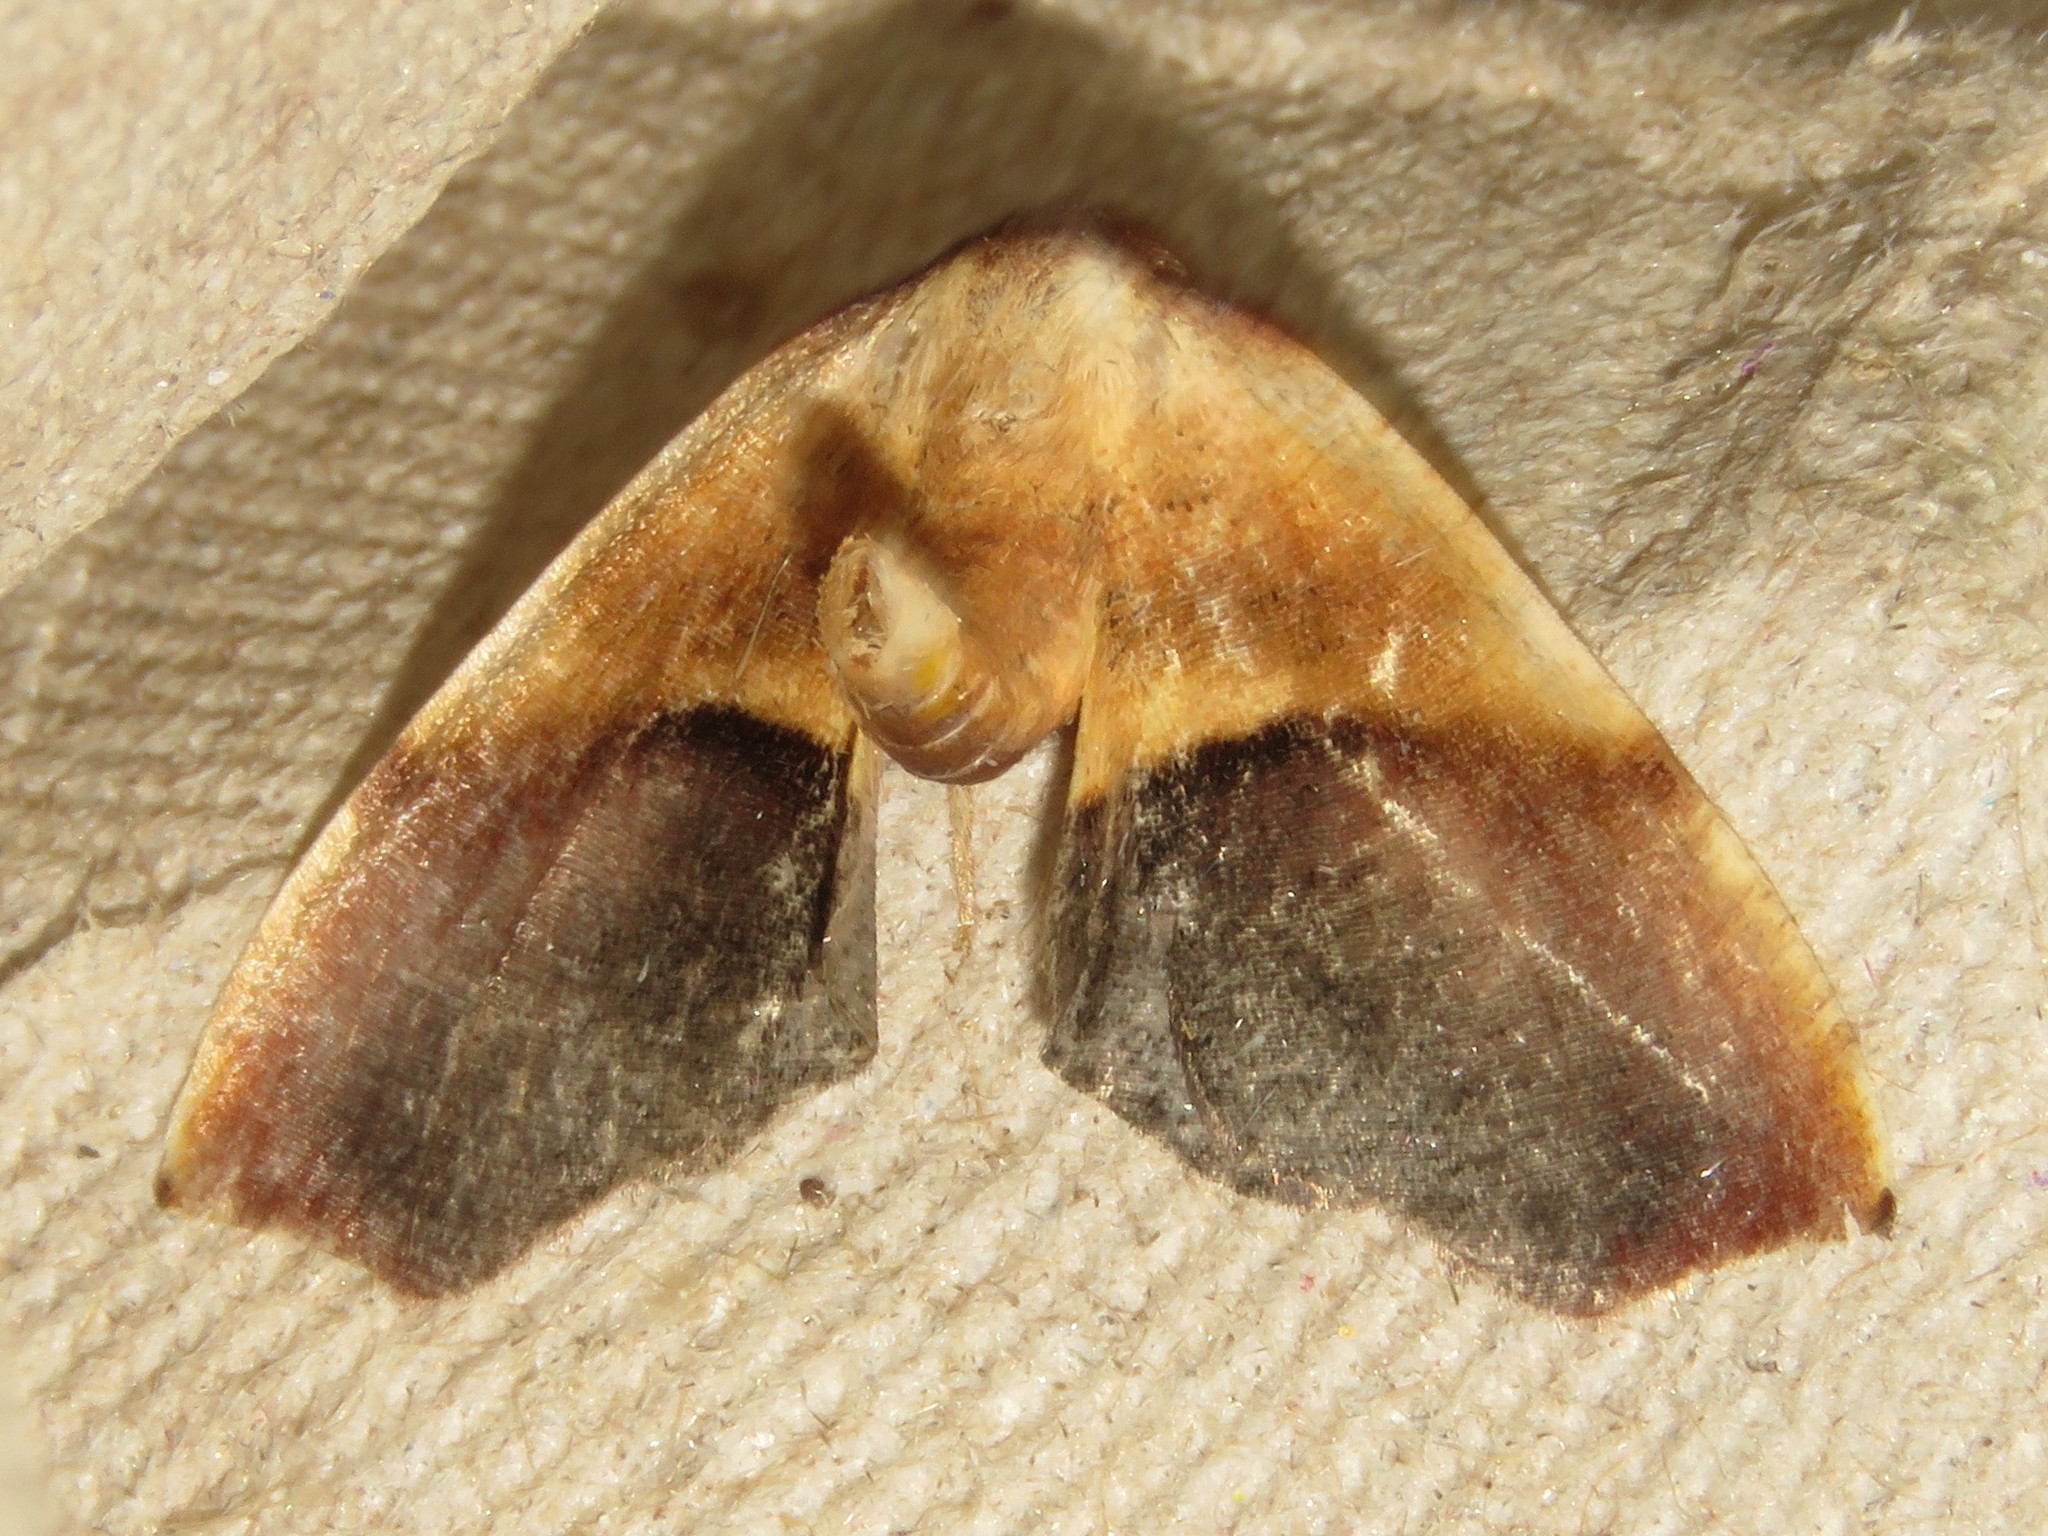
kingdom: Animalia
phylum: Arthropoda
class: Insecta
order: Lepidoptera
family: Geometridae
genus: Plagodis
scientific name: Plagodis kuetzingi
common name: Purple plagodis
